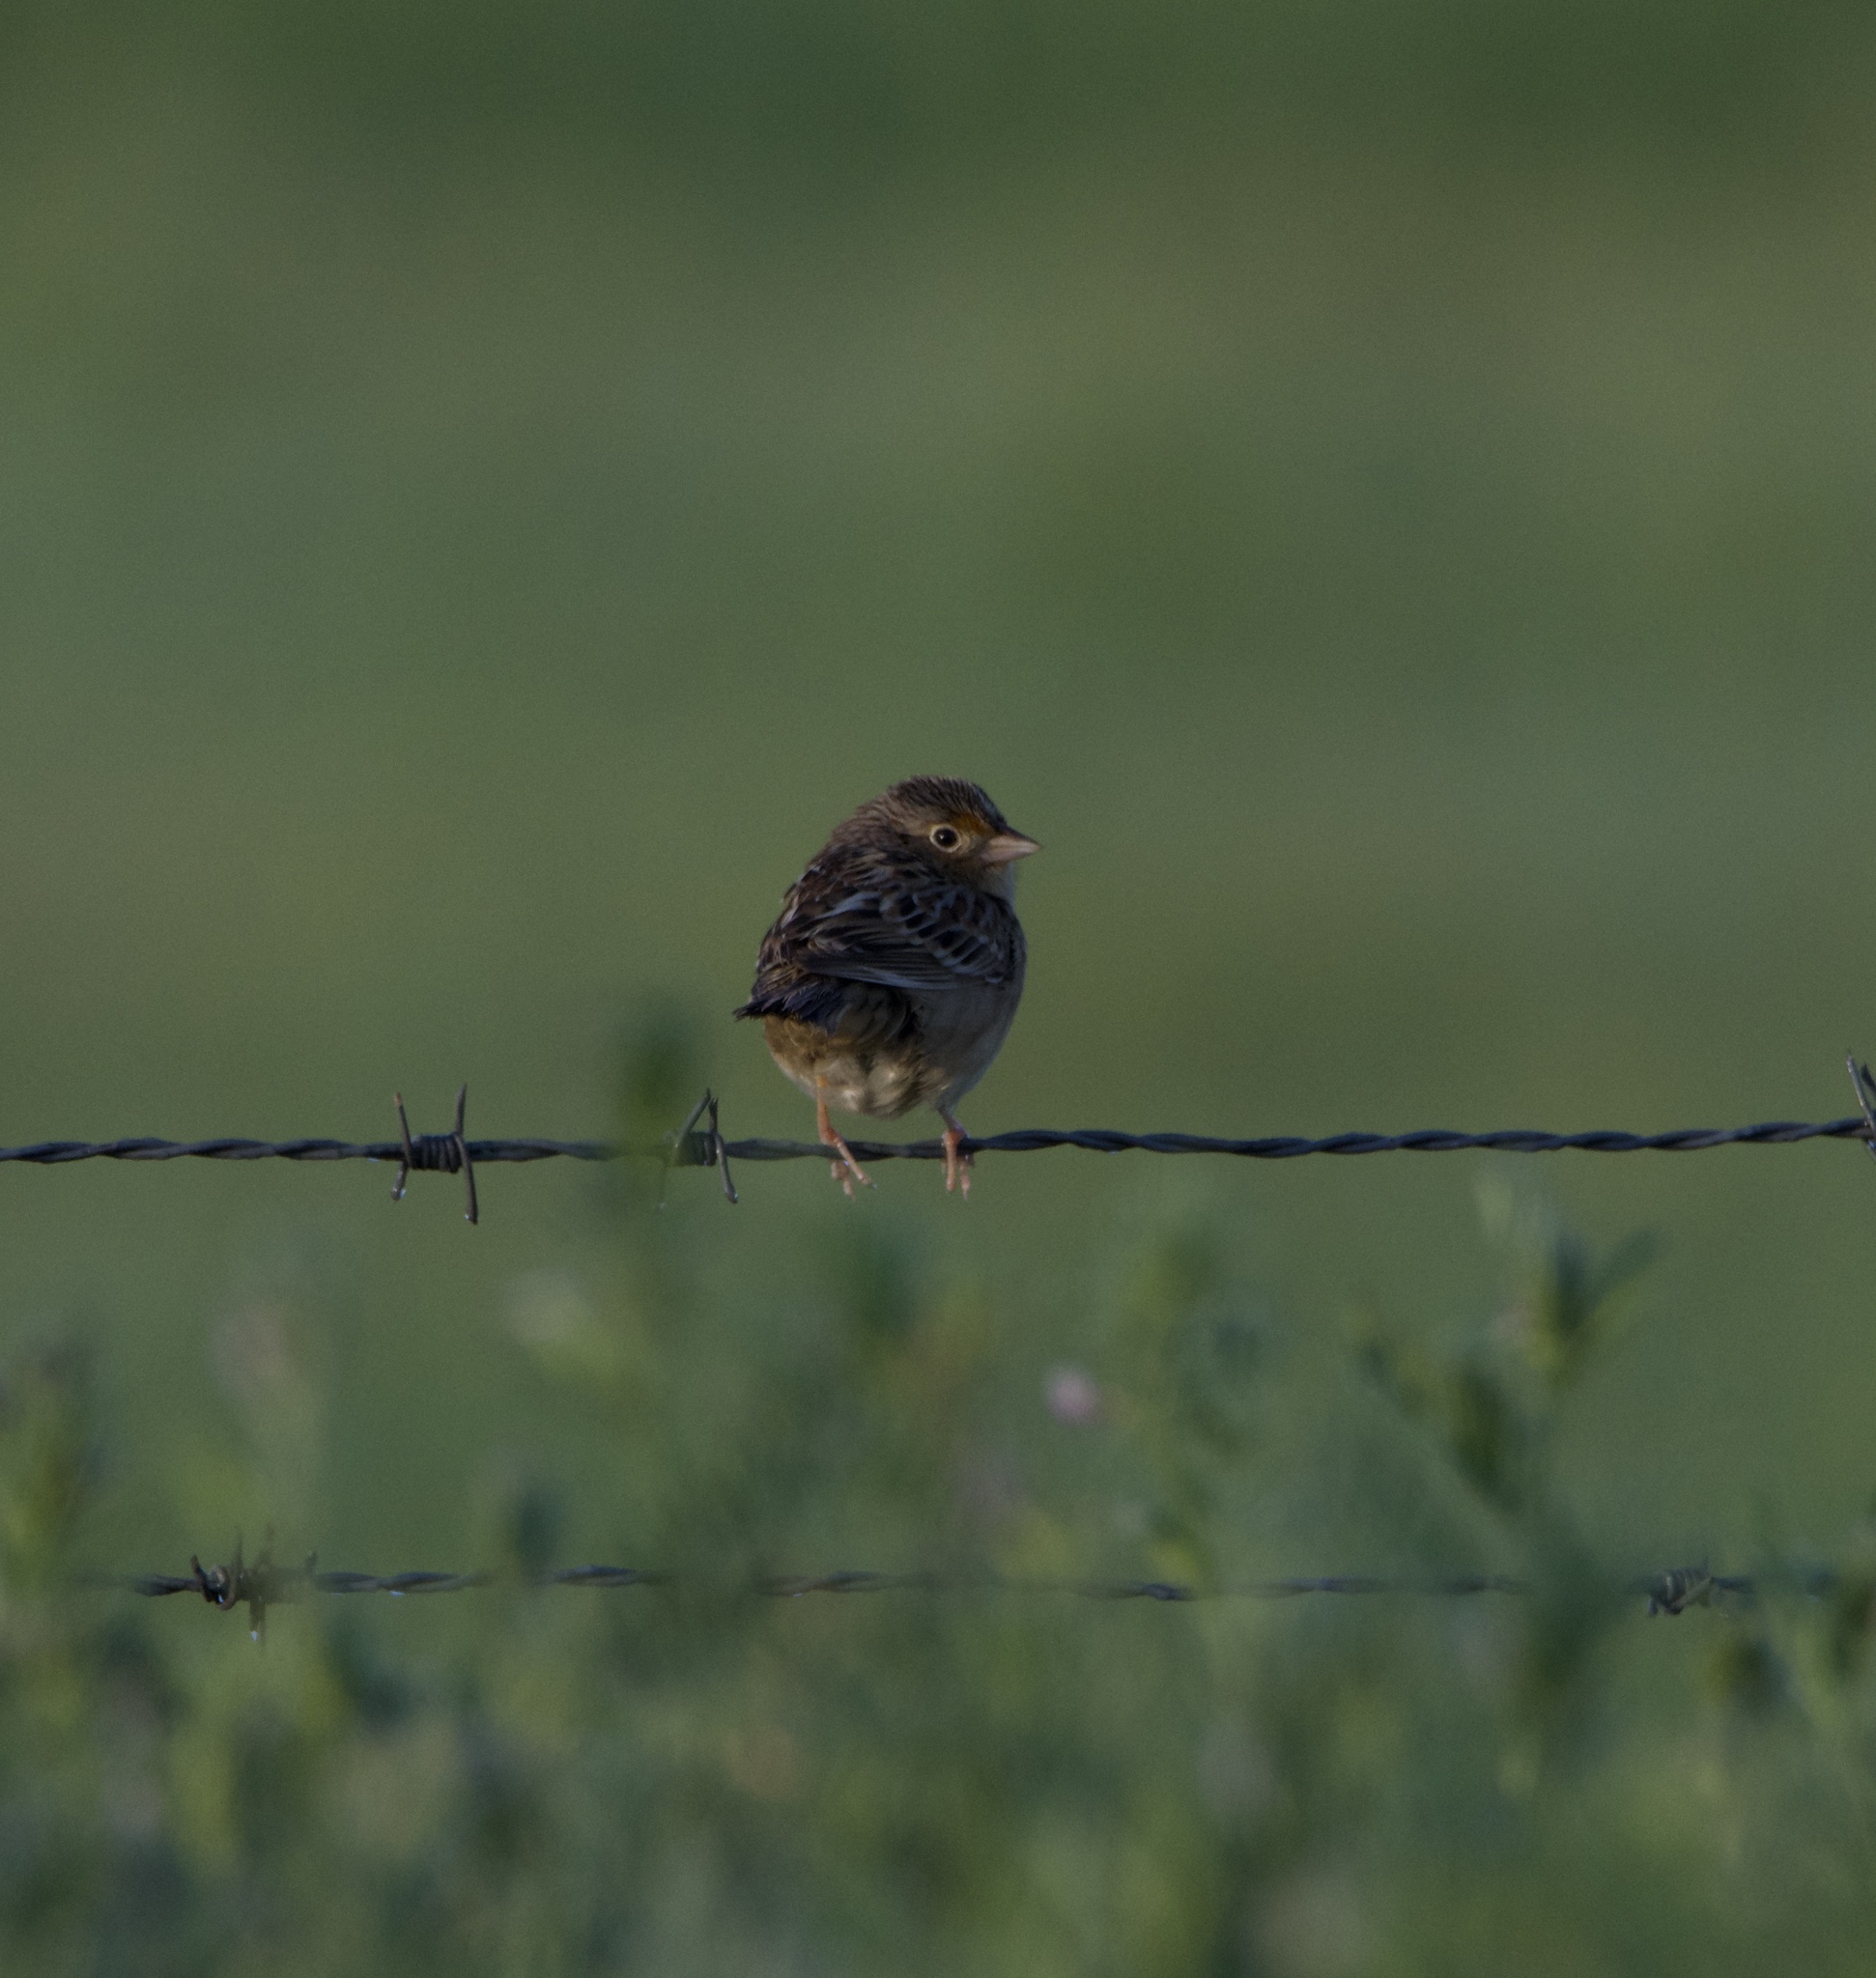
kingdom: Animalia
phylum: Chordata
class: Aves
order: Passeriformes
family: Passerellidae
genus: Ammodramus
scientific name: Ammodramus savannarum
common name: Grasshopper sparrow
